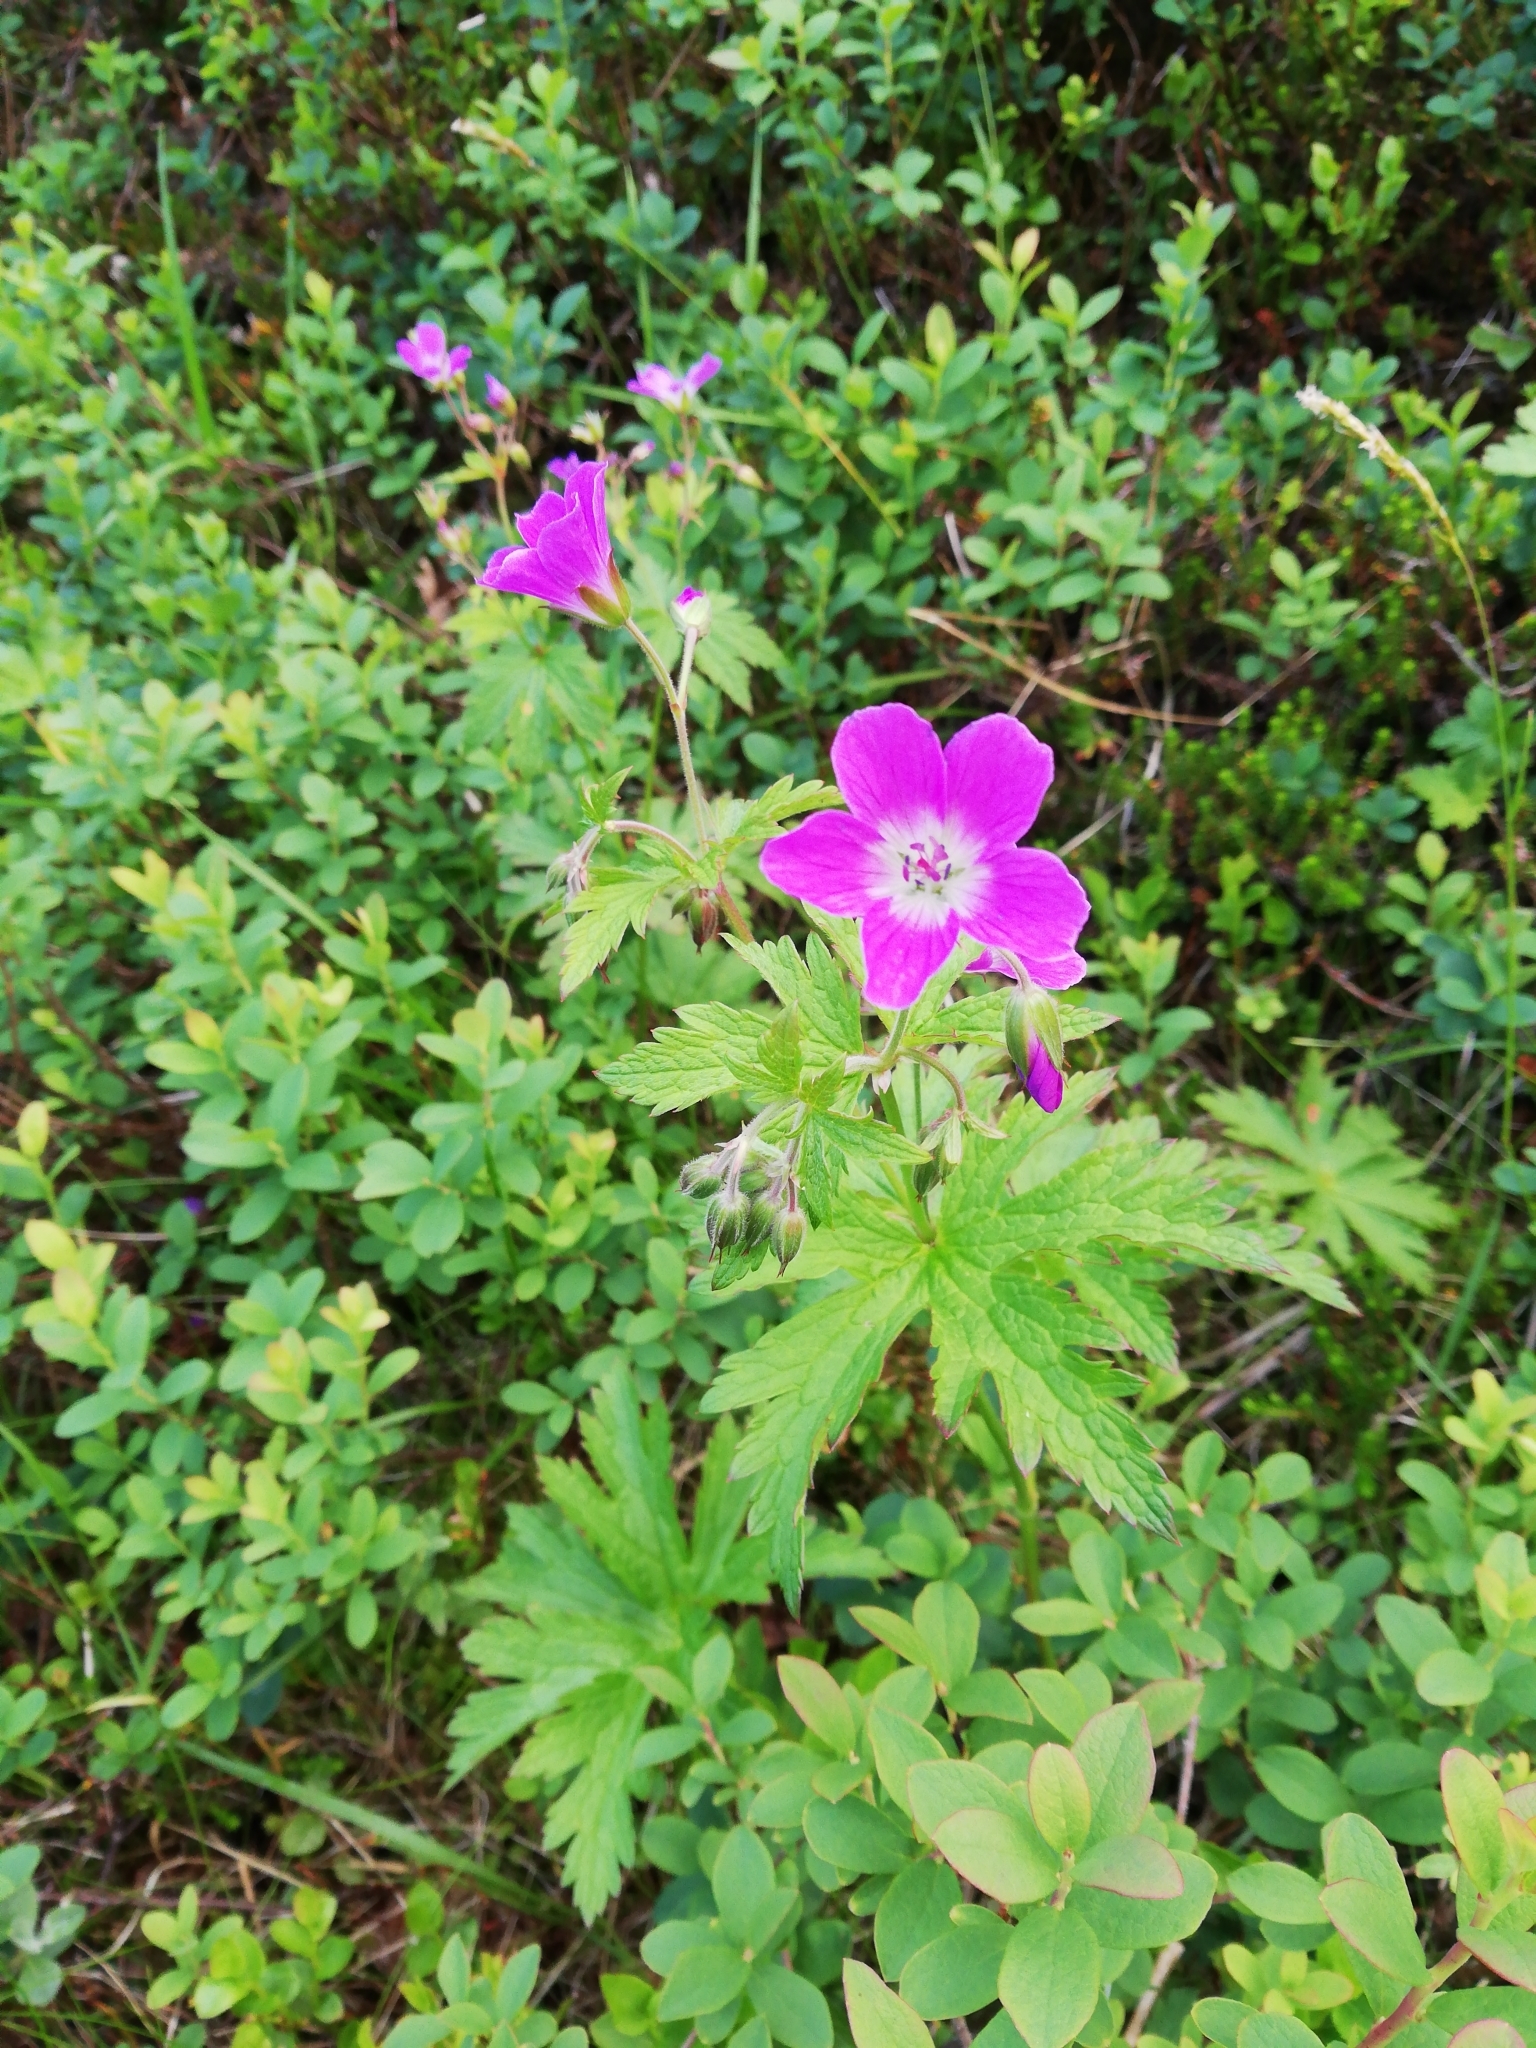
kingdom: Plantae
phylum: Tracheophyta
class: Magnoliopsida
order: Geraniales
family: Geraniaceae
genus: Geranium
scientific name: Geranium sylvaticum
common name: Wood crane's-bill
